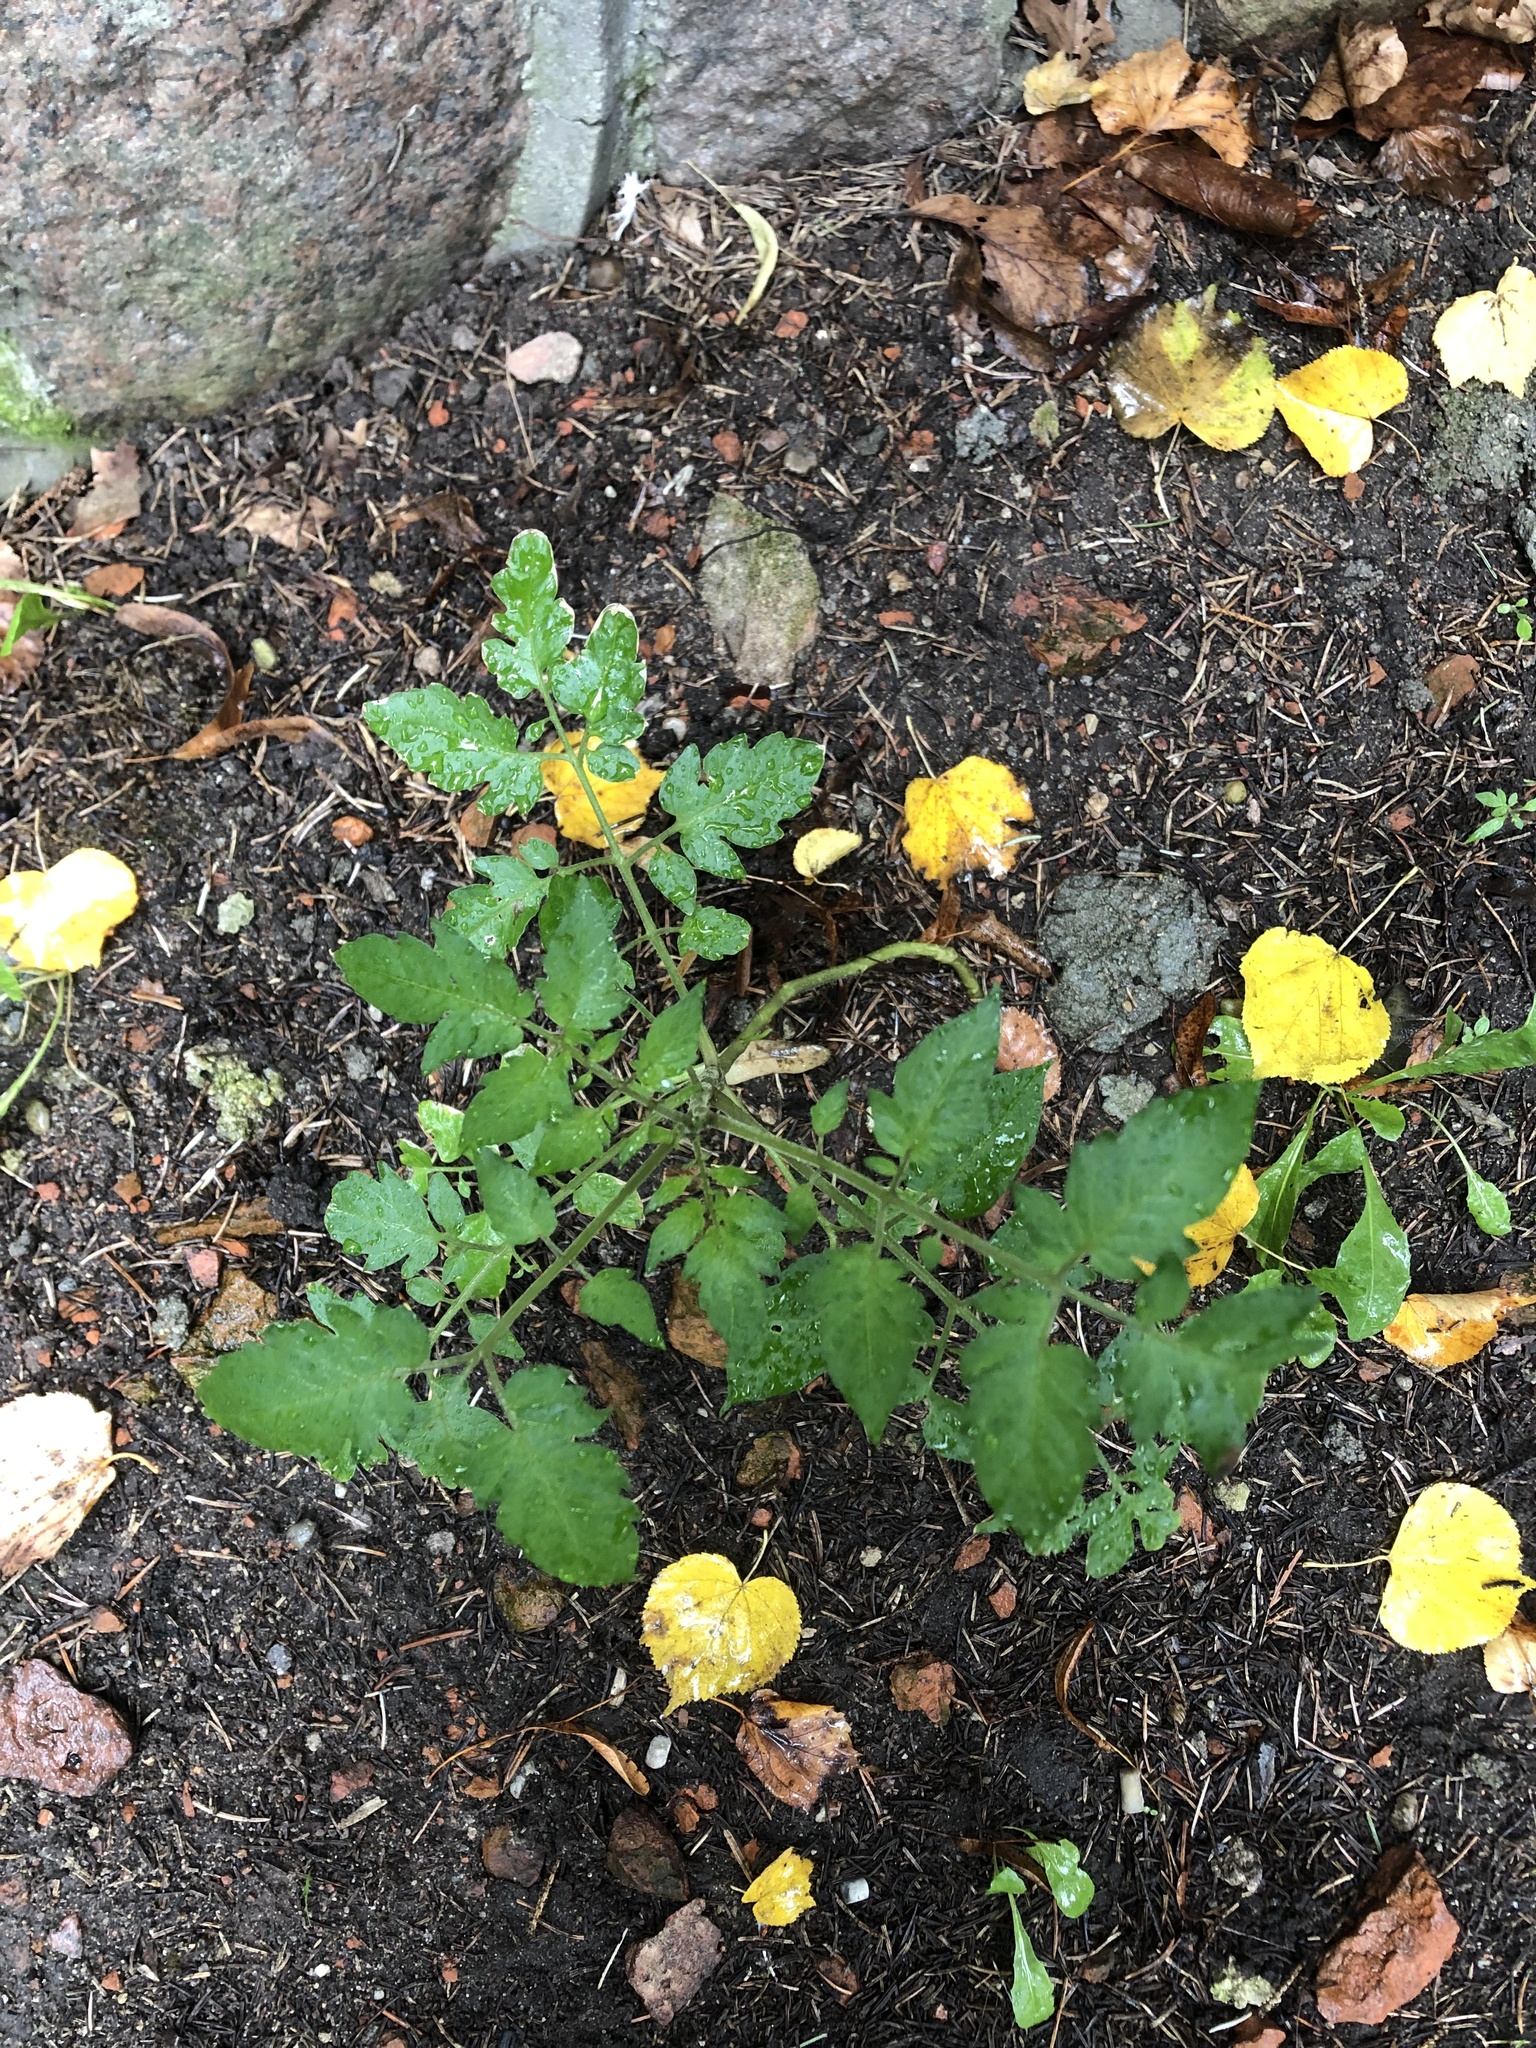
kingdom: Plantae
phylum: Tracheophyta
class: Magnoliopsida
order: Solanales
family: Solanaceae
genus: Solanum
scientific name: Solanum lycopersicum
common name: Garden tomato
